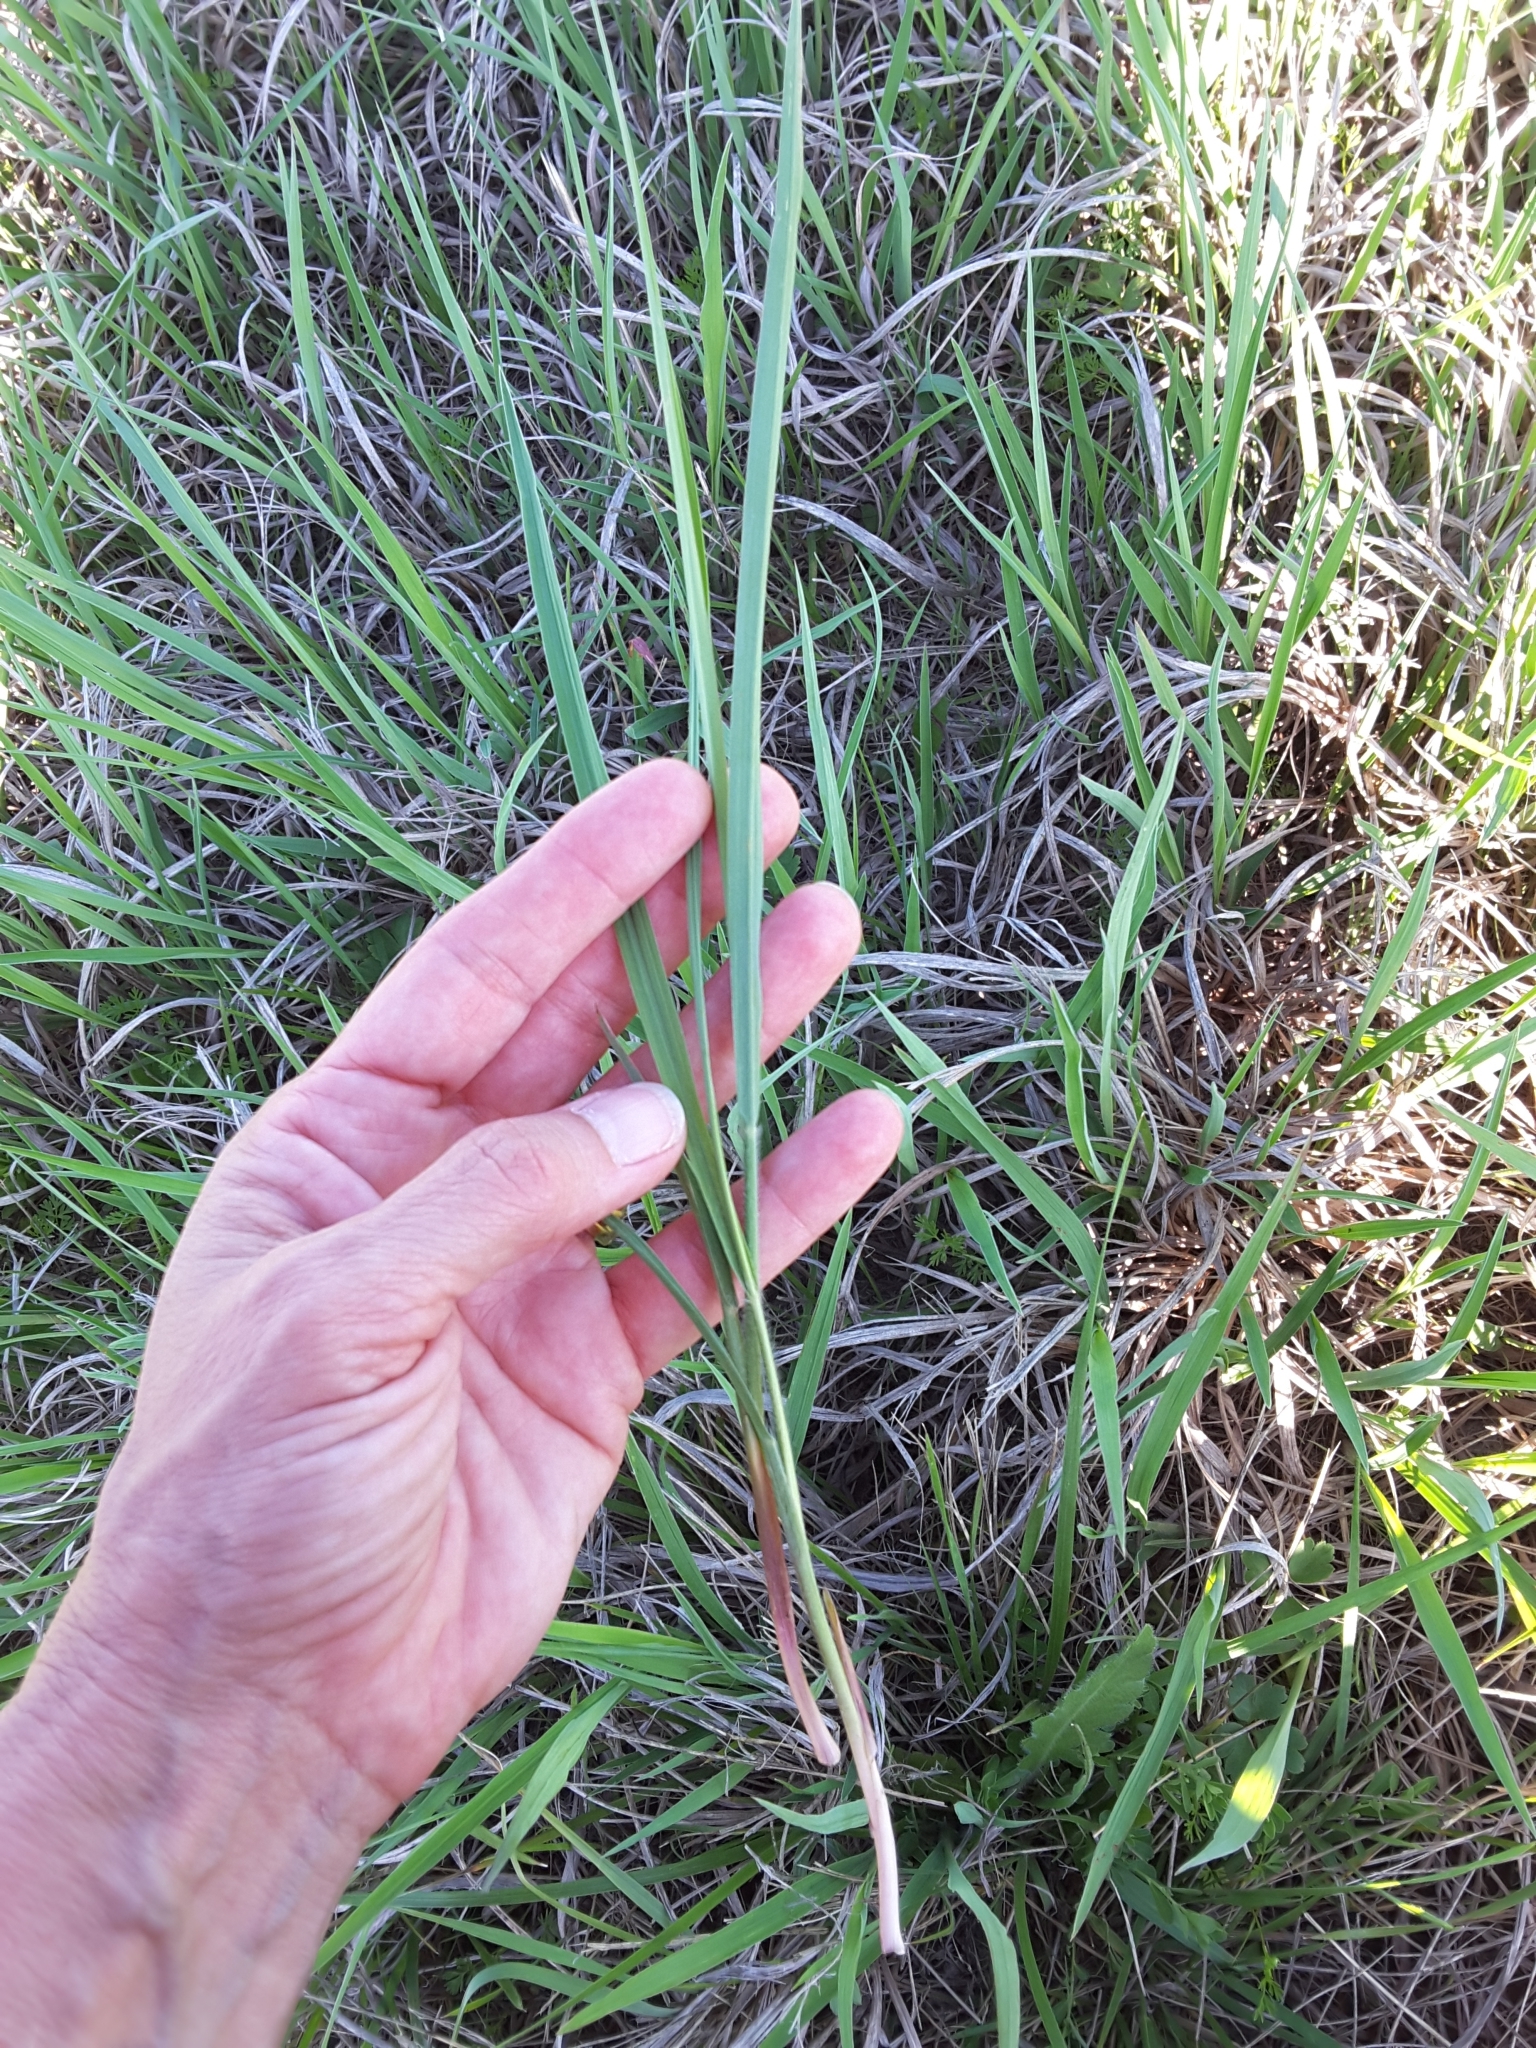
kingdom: Plantae
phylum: Tracheophyta
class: Liliopsida
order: Poales
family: Poaceae
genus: Andropogon
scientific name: Andropogon gerardi
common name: Big bluestem
